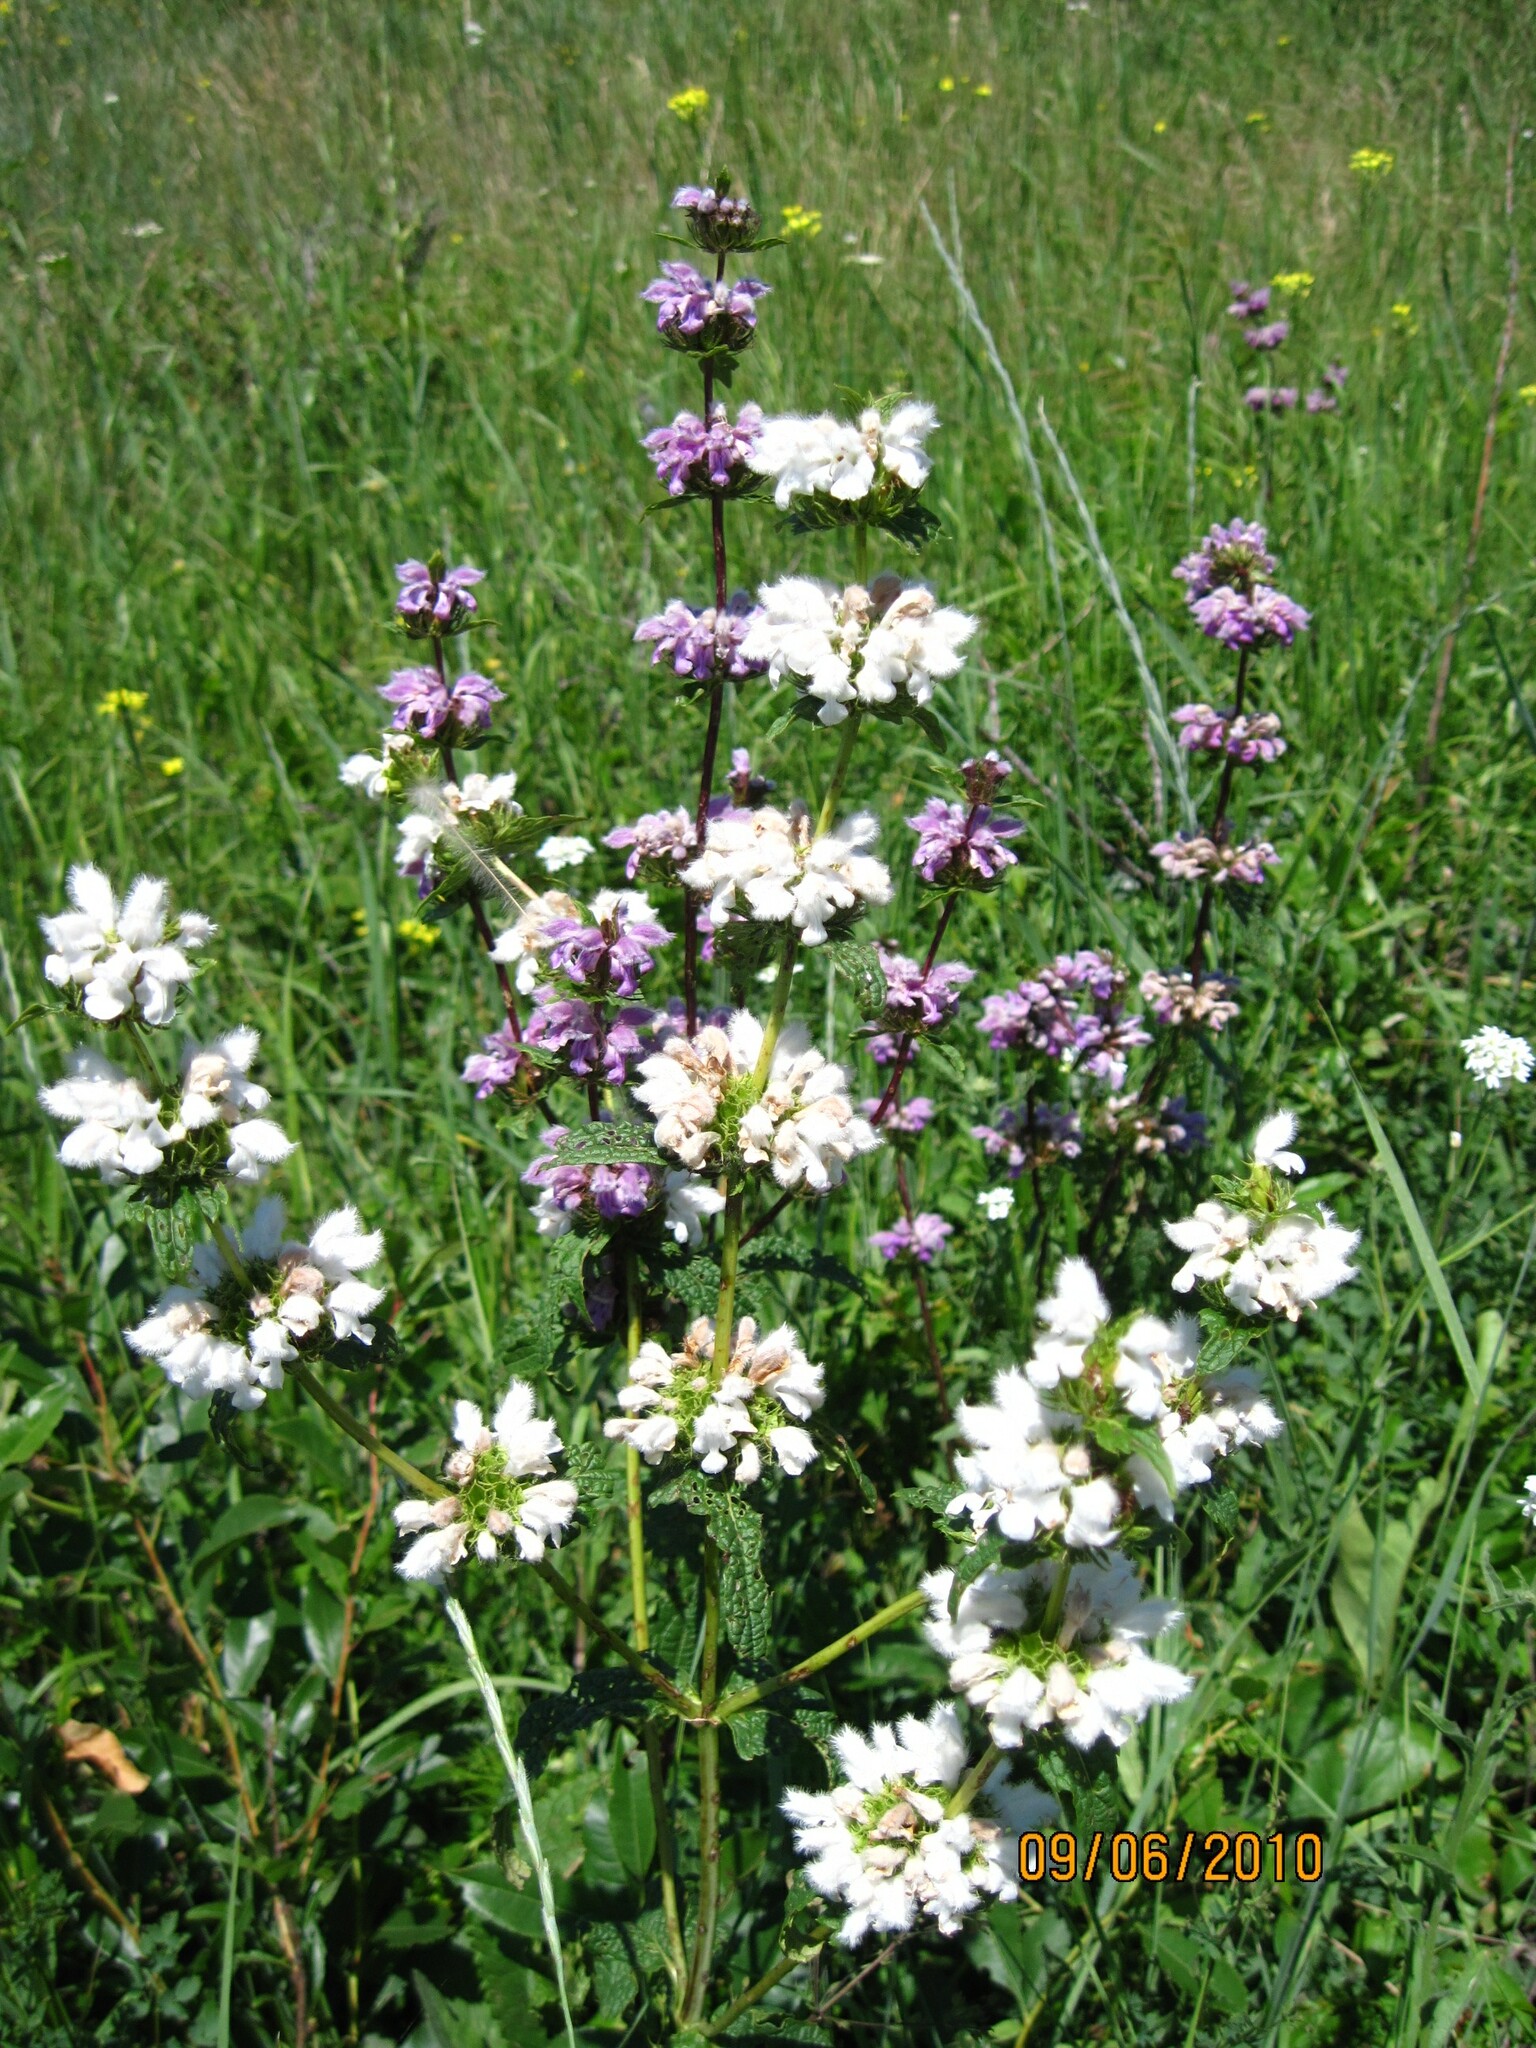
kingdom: Plantae
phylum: Tracheophyta
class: Magnoliopsida
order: Lamiales
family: Lamiaceae
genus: Phlomoides
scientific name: Phlomoides tuberosa
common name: Tuberous jerusalem sage
